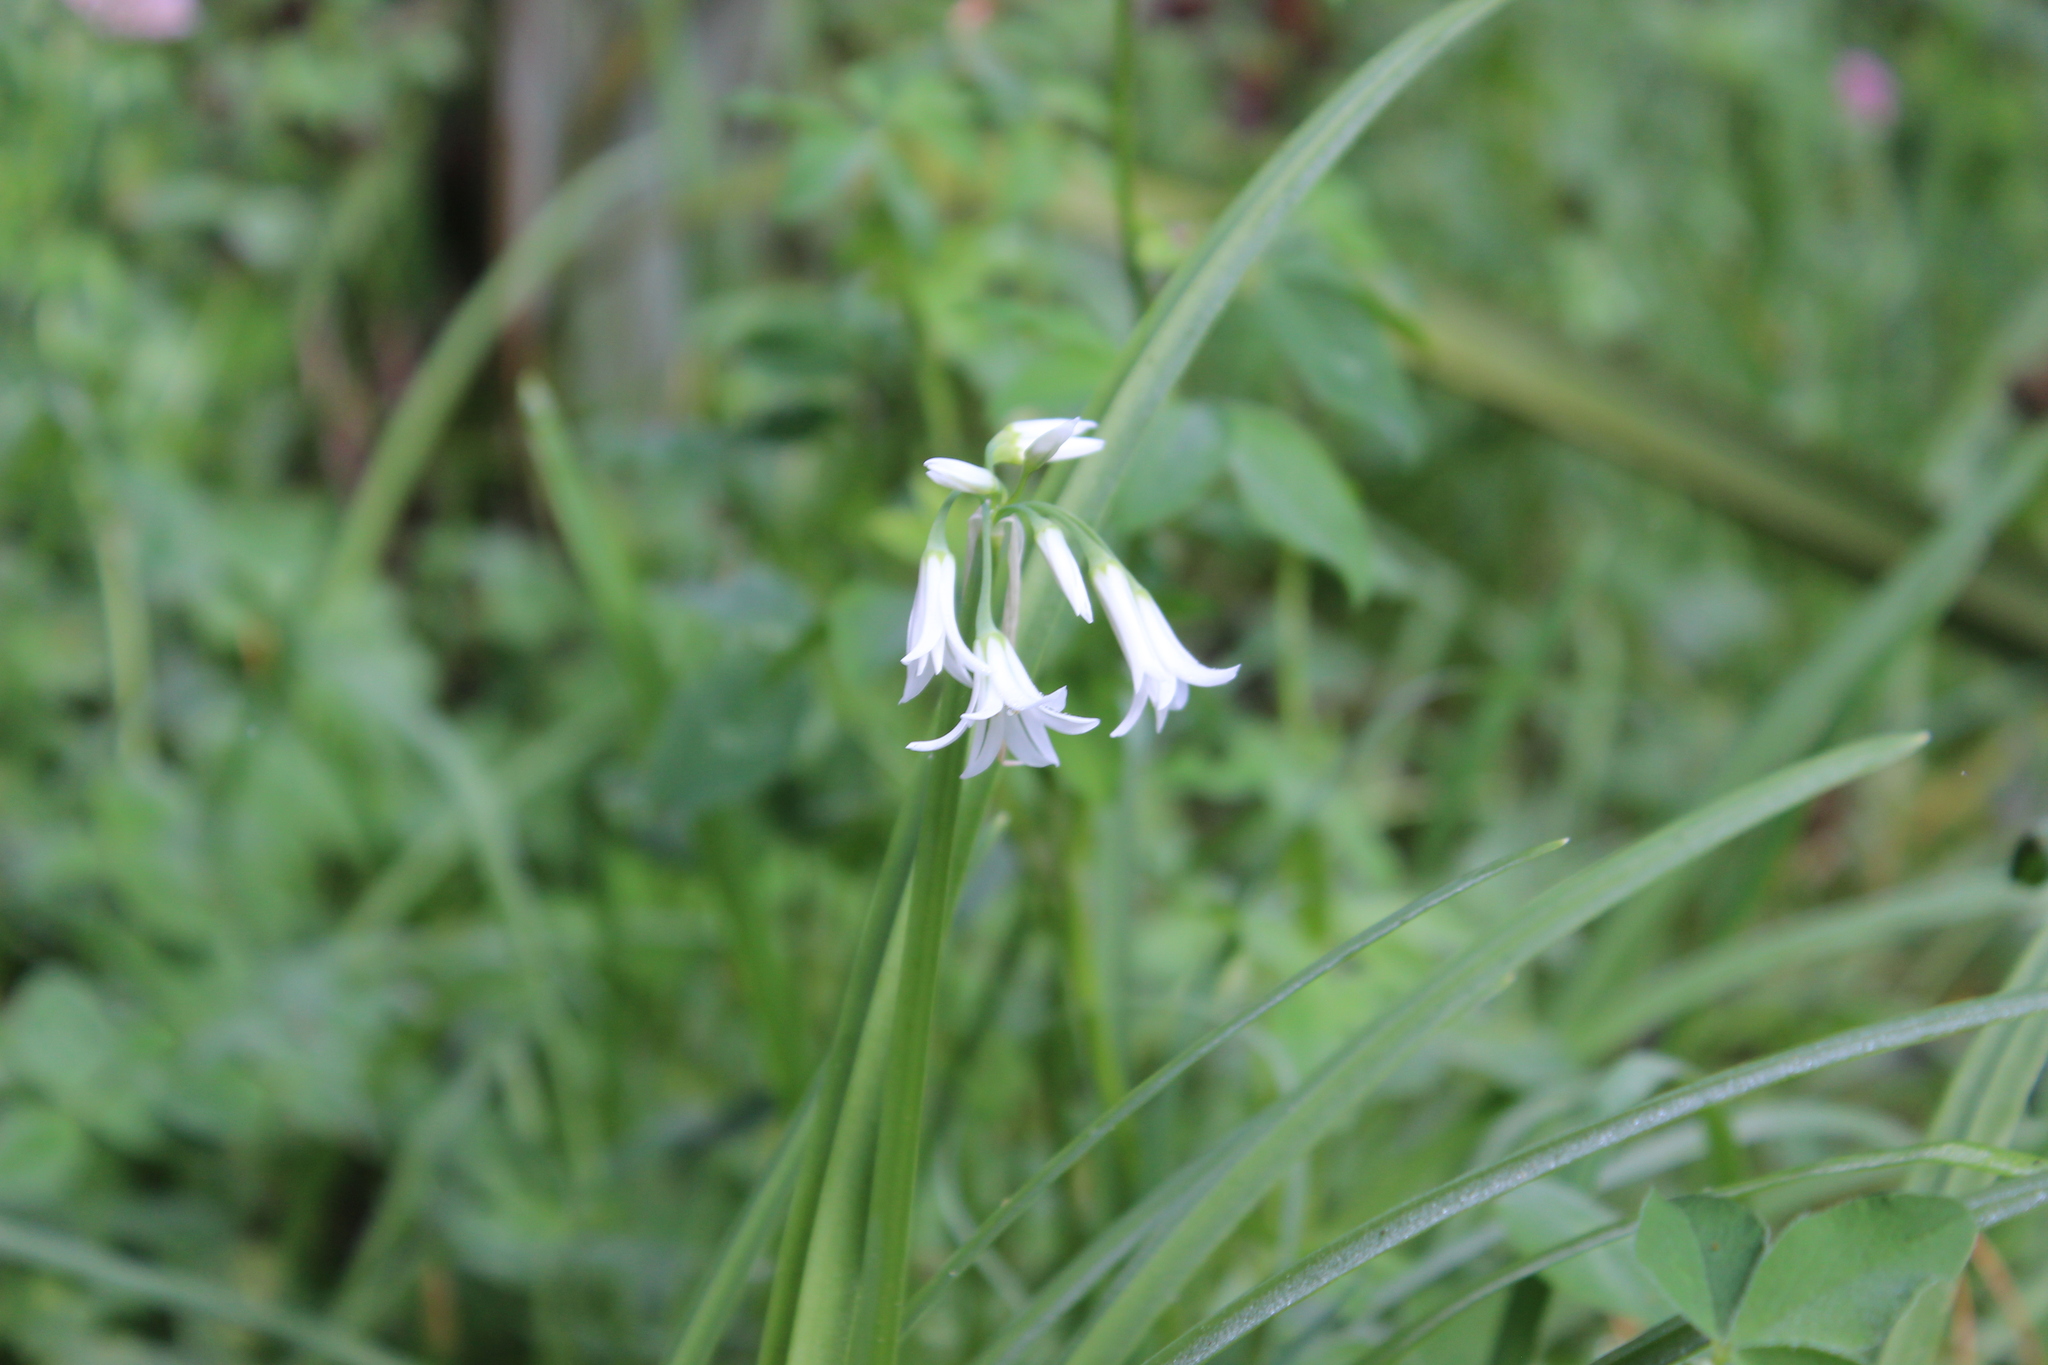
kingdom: Plantae
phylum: Tracheophyta
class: Liliopsida
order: Asparagales
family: Amaryllidaceae
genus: Allium
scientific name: Allium triquetrum
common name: Three-cornered garlic
